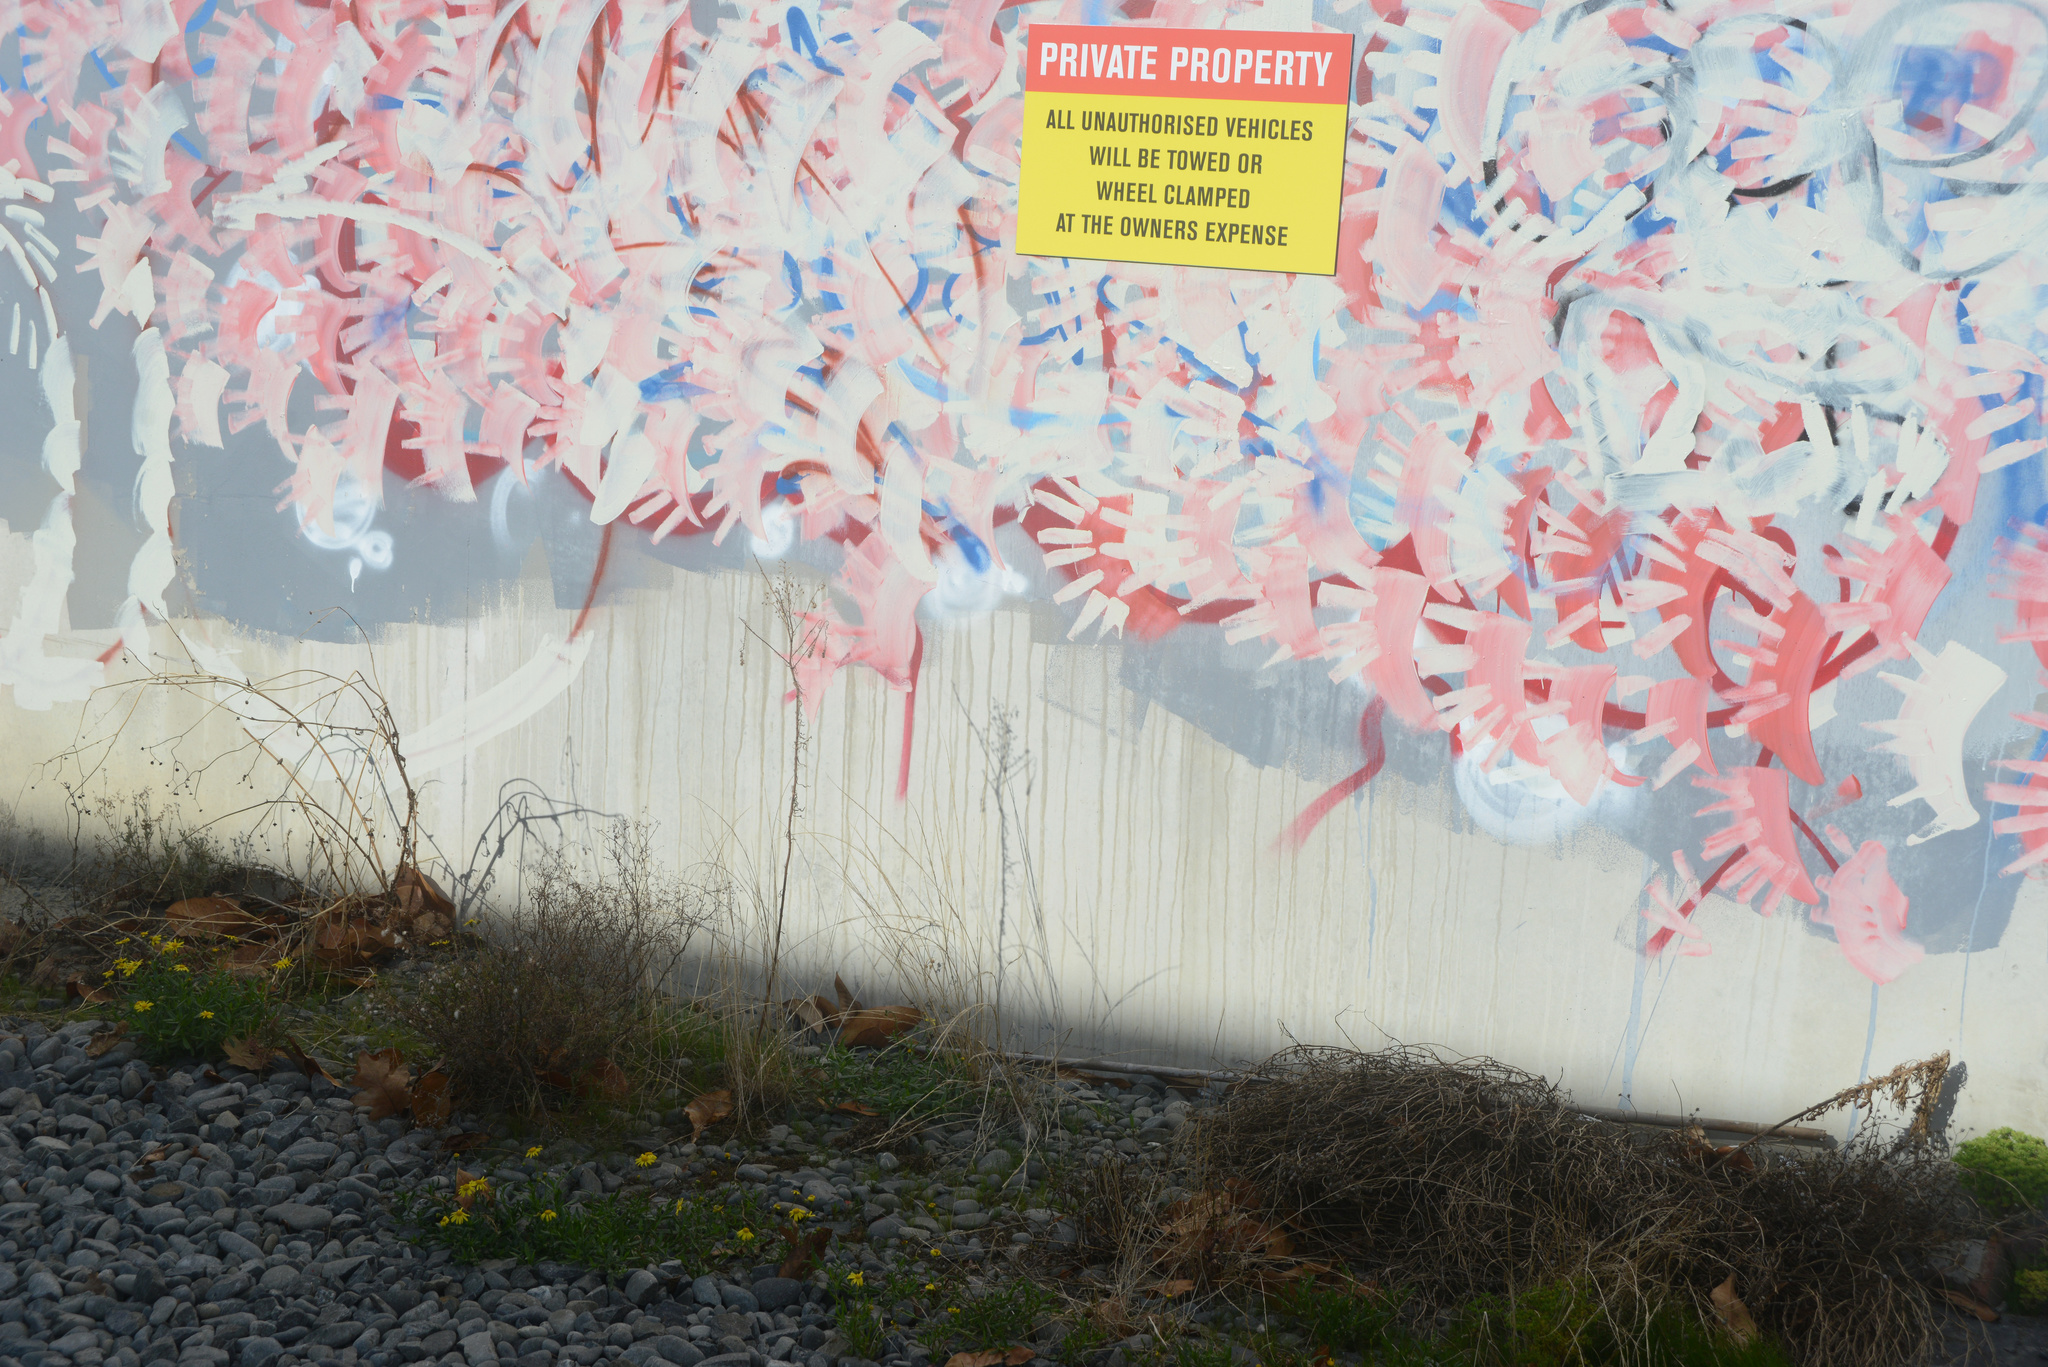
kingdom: Plantae
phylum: Tracheophyta
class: Magnoliopsida
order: Asterales
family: Asteraceae
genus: Senecio
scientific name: Senecio skirrhodon
